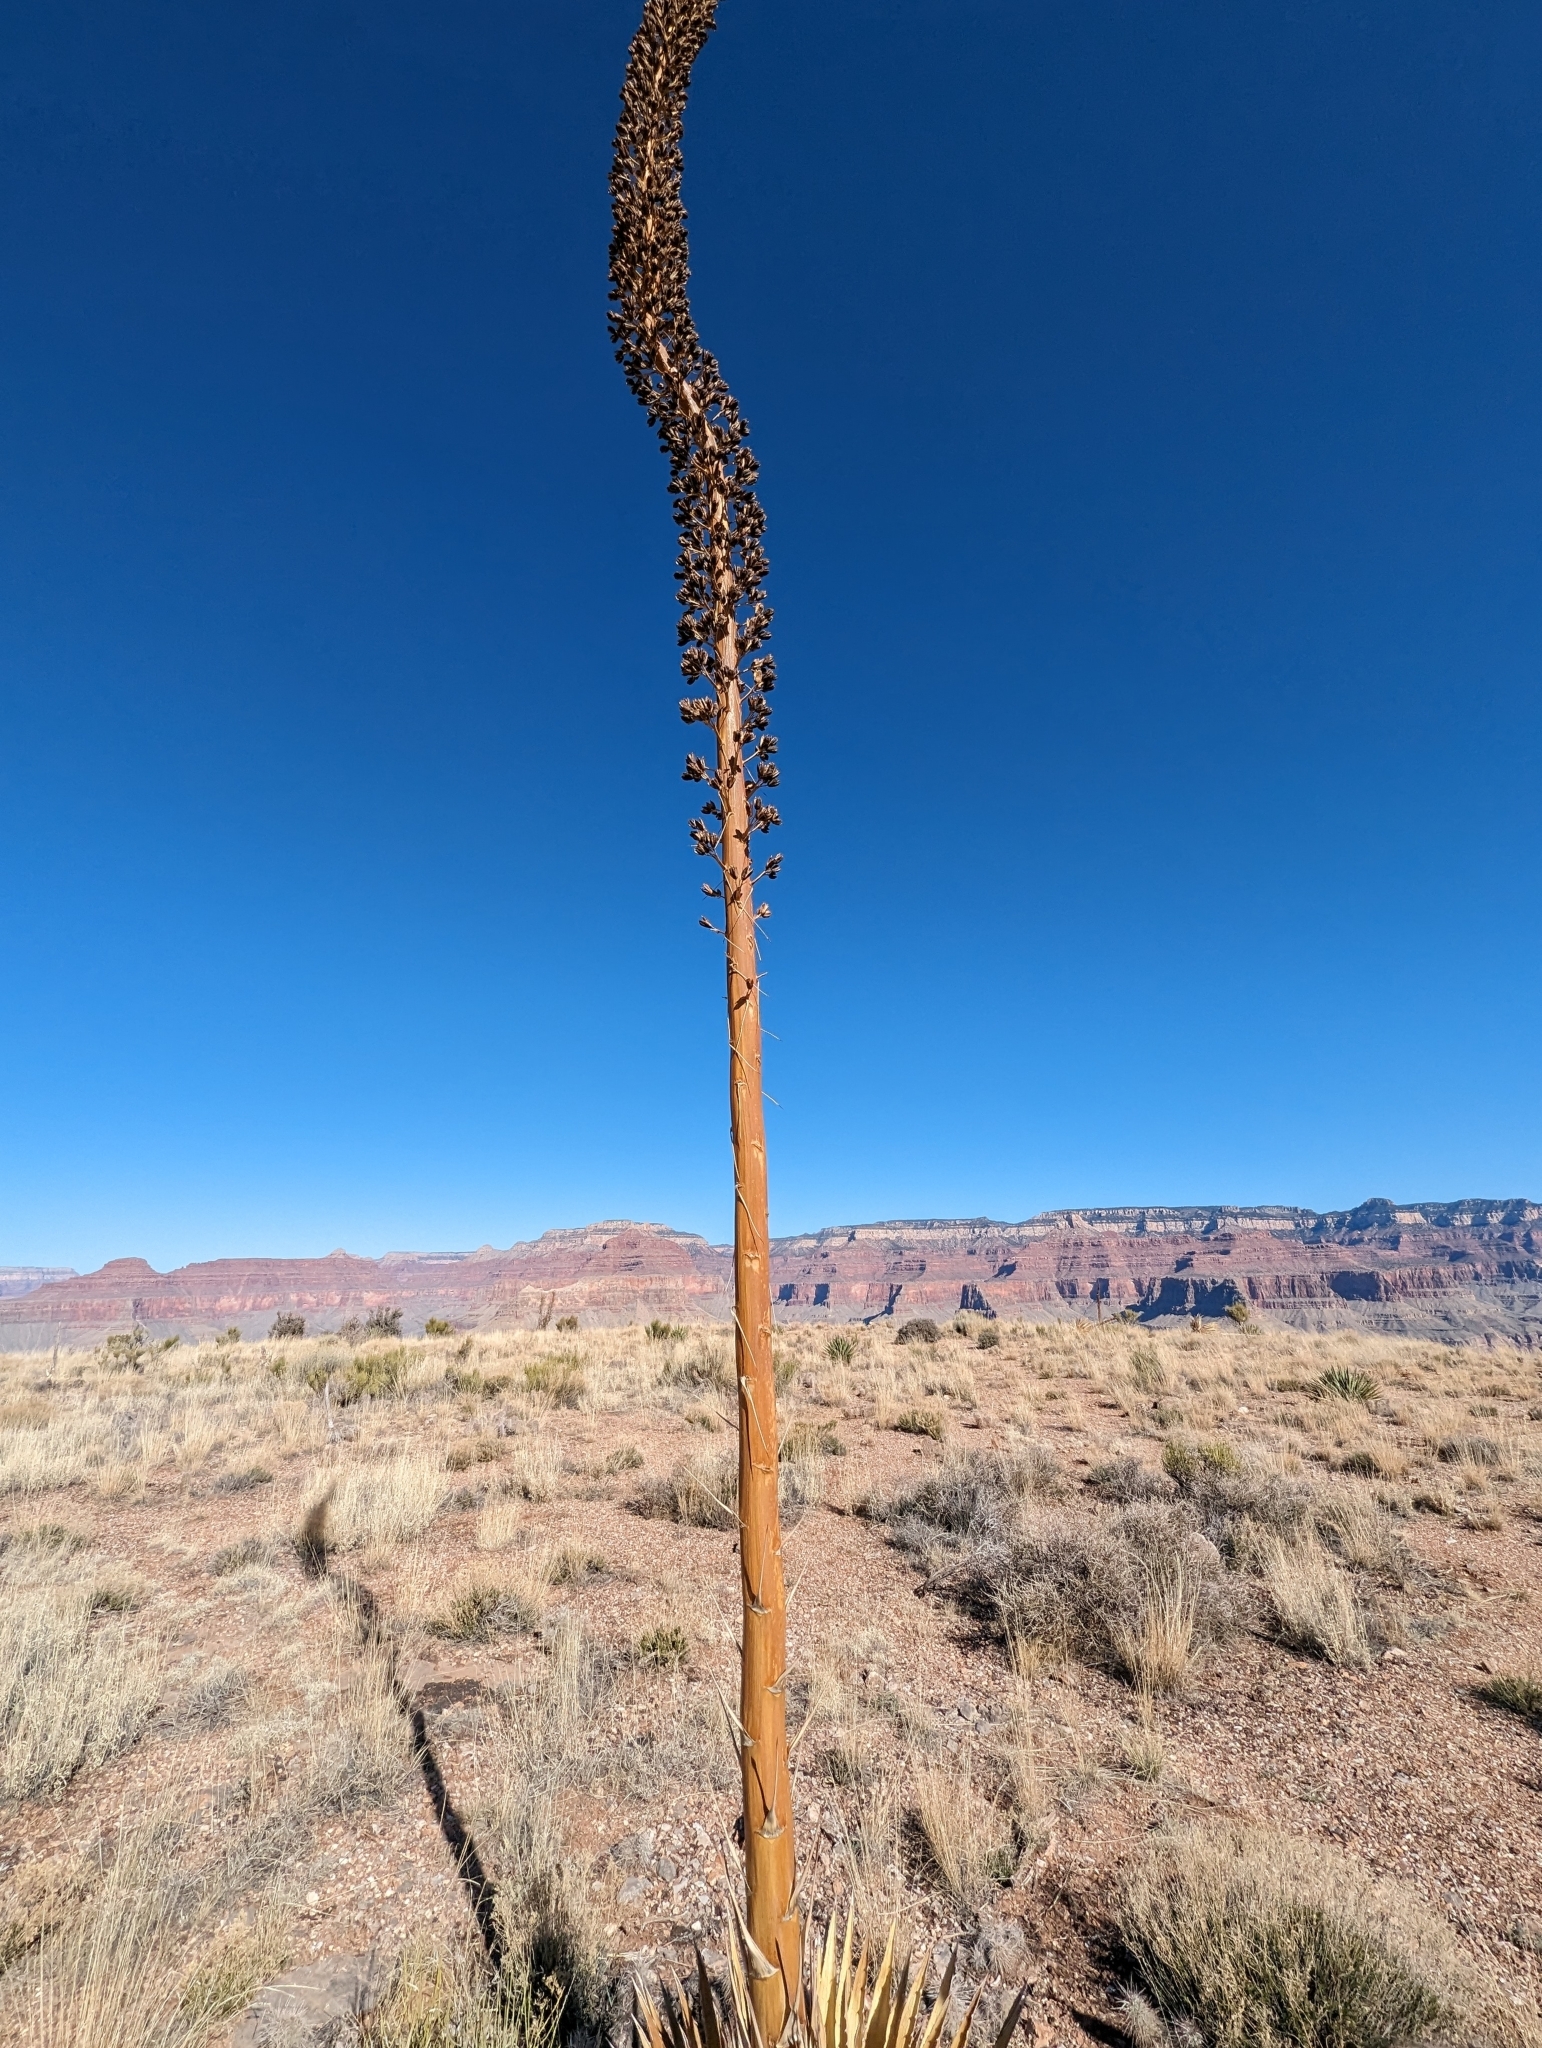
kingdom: Plantae
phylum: Tracheophyta
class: Liliopsida
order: Asparagales
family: Asparagaceae
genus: Agave
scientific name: Agave utahensis
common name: Utah agave
